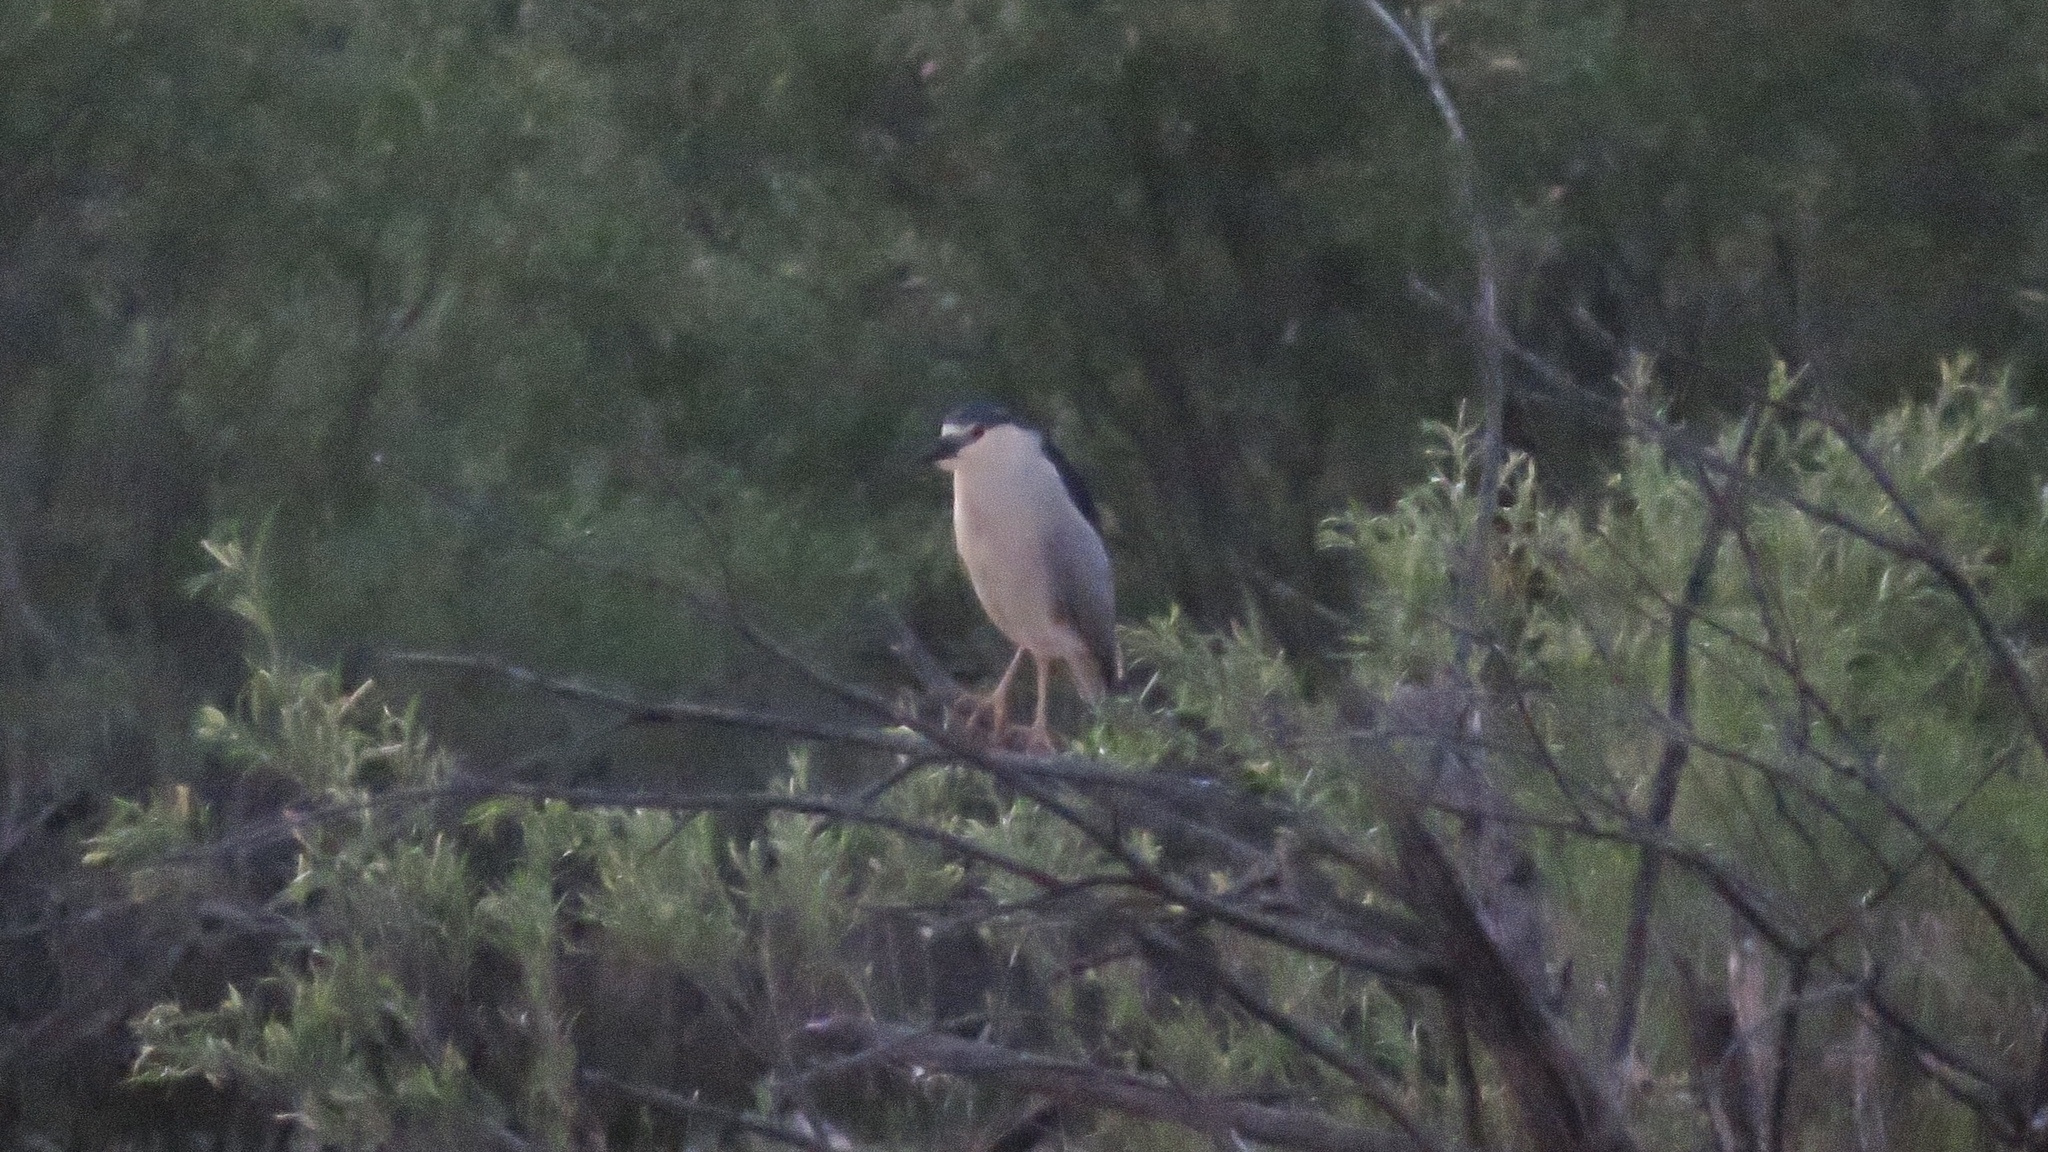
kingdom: Animalia
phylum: Chordata
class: Aves
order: Pelecaniformes
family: Ardeidae
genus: Nycticorax
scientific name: Nycticorax nycticorax
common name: Black-crowned night heron
